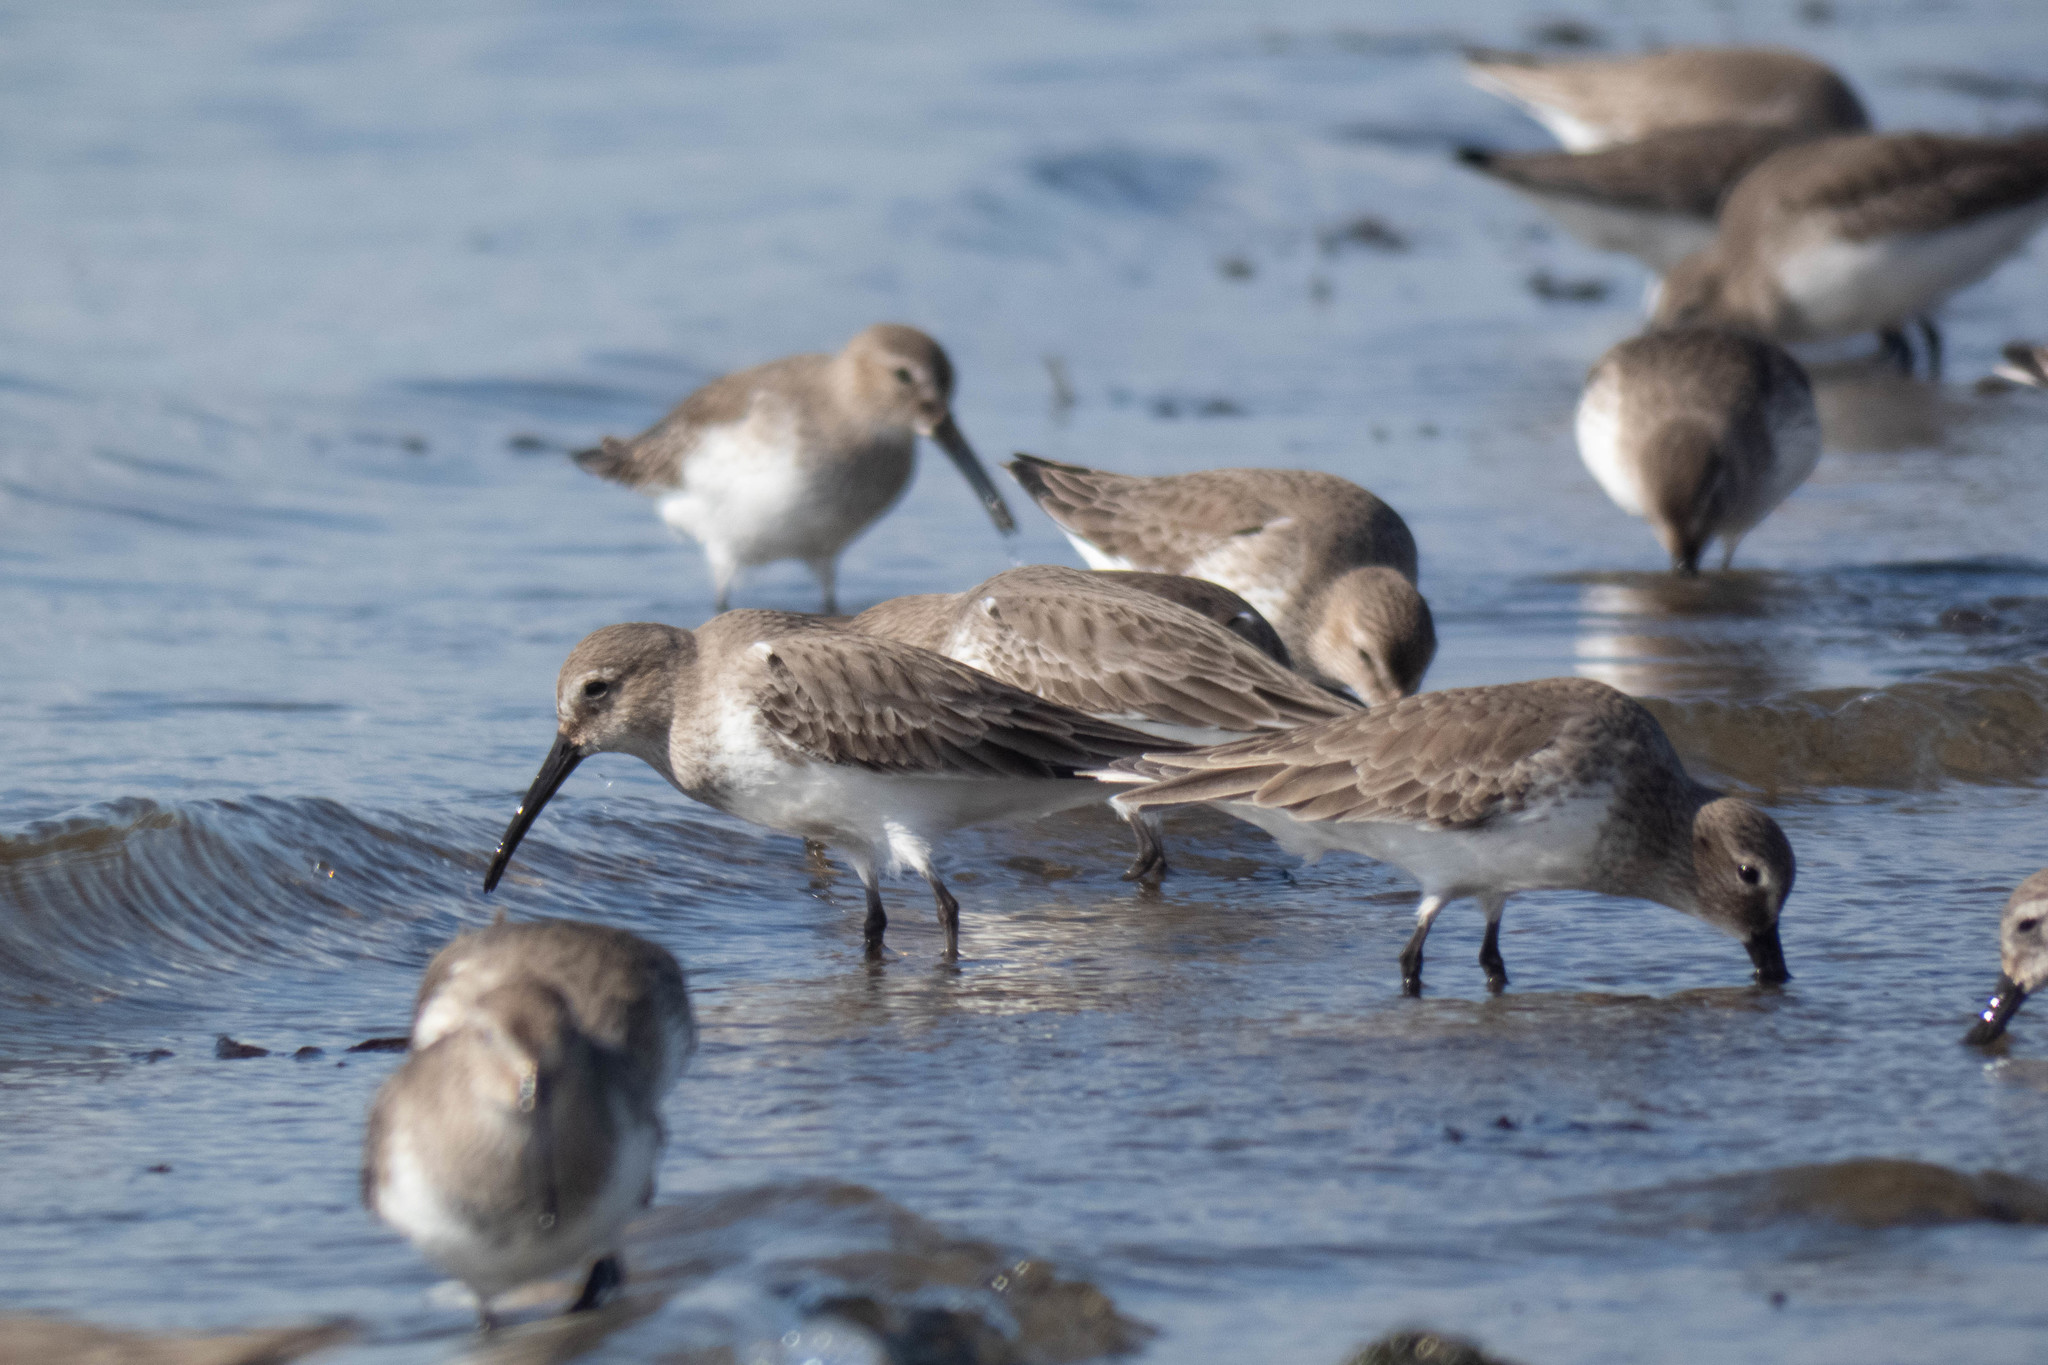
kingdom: Animalia
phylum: Chordata
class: Aves
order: Charadriiformes
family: Scolopacidae
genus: Calidris
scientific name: Calidris alpina
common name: Dunlin
